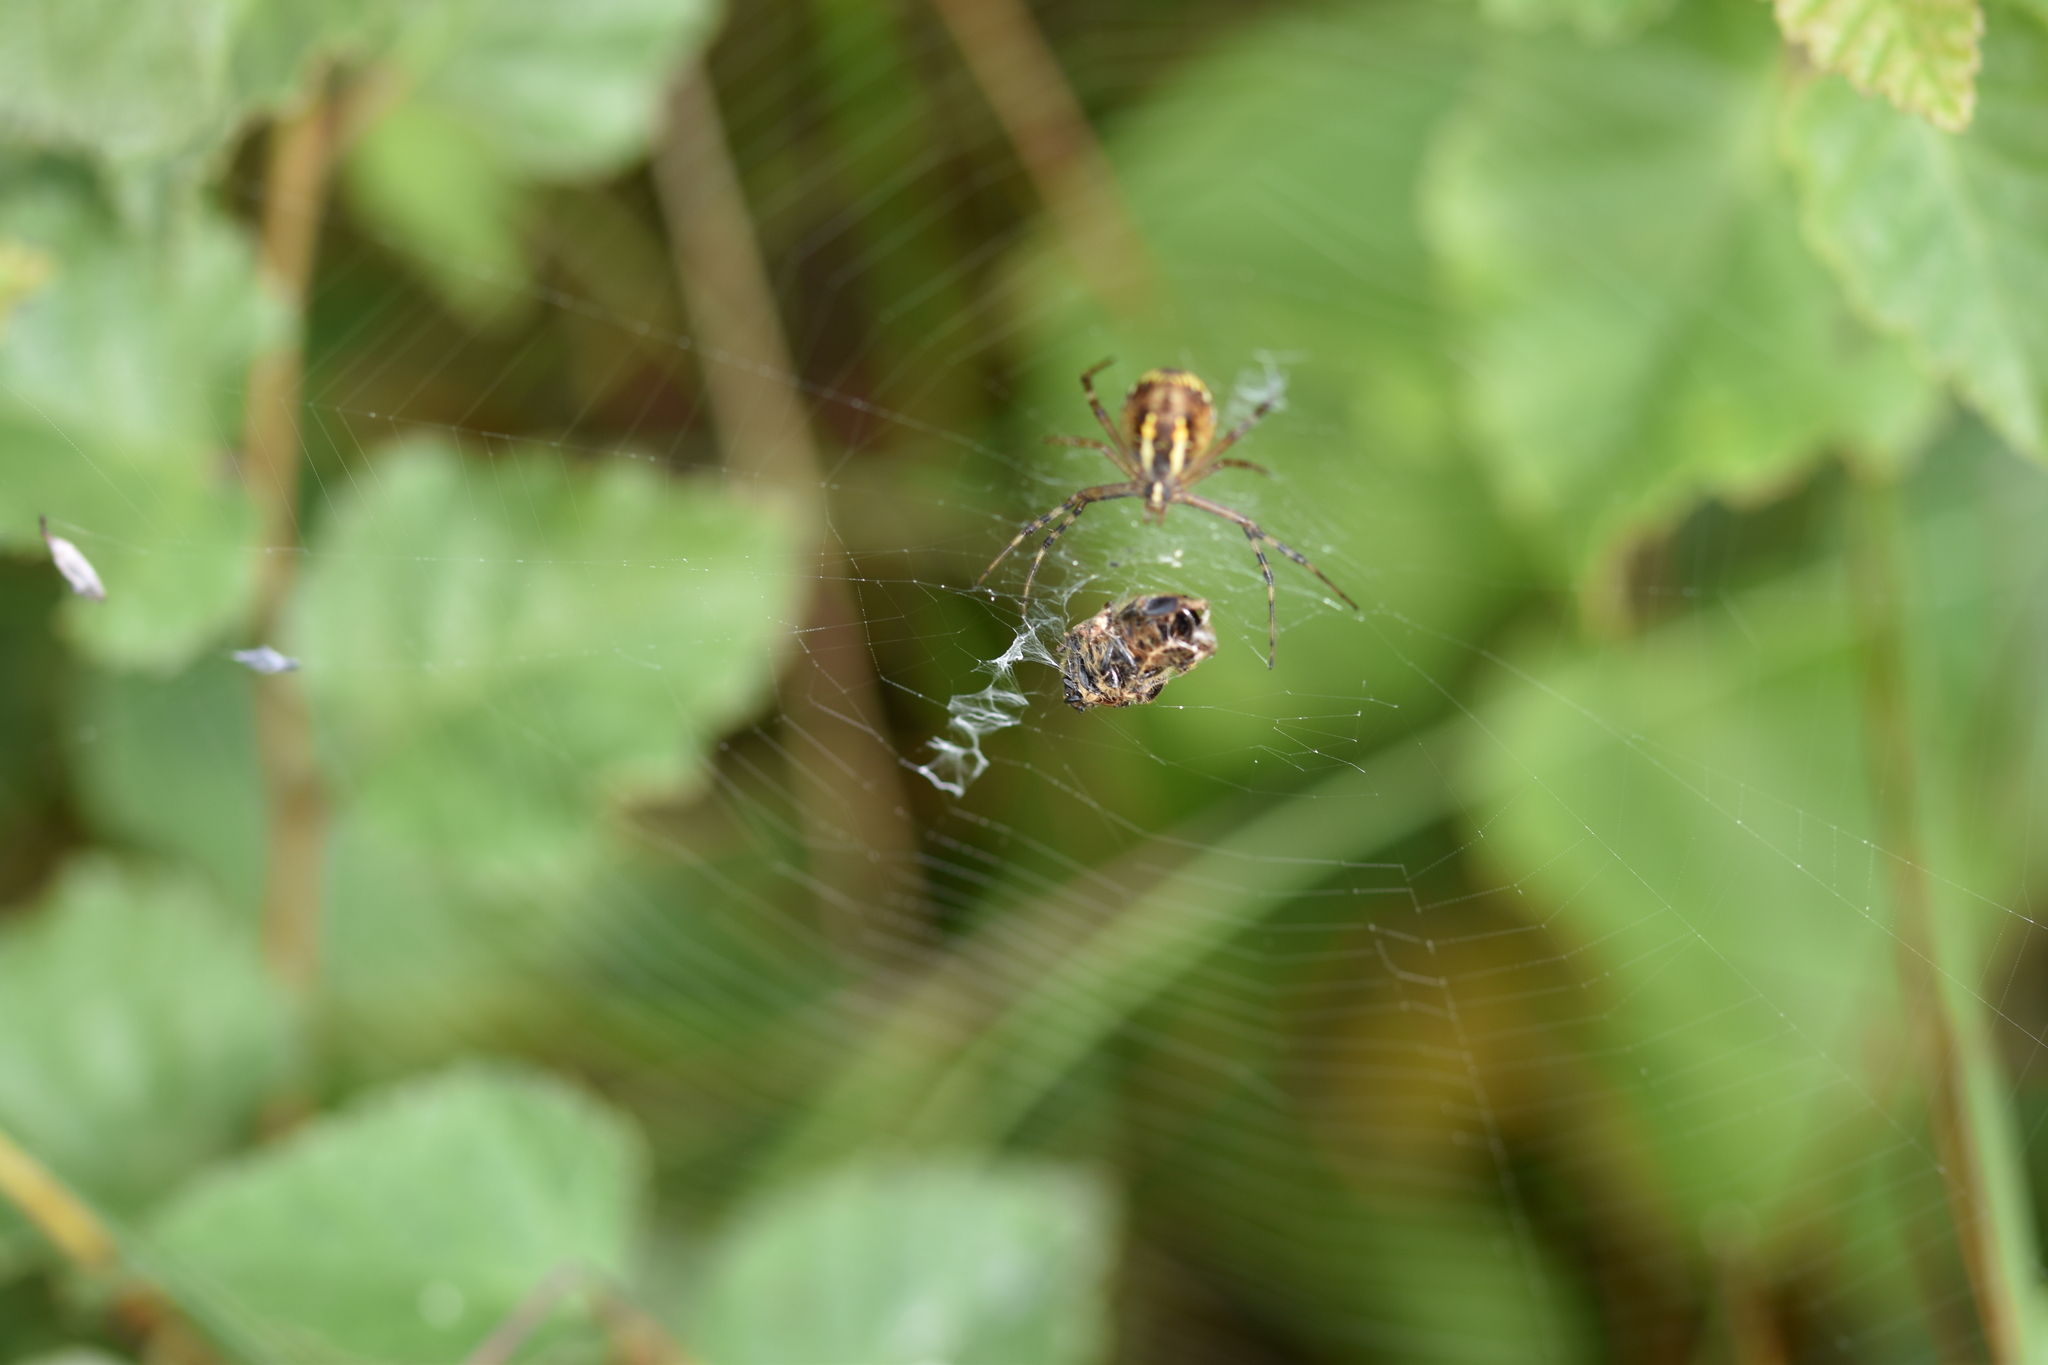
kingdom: Animalia
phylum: Arthropoda
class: Arachnida
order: Araneae
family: Araneidae
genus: Argiope
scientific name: Argiope bruennichi
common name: Wasp spider
